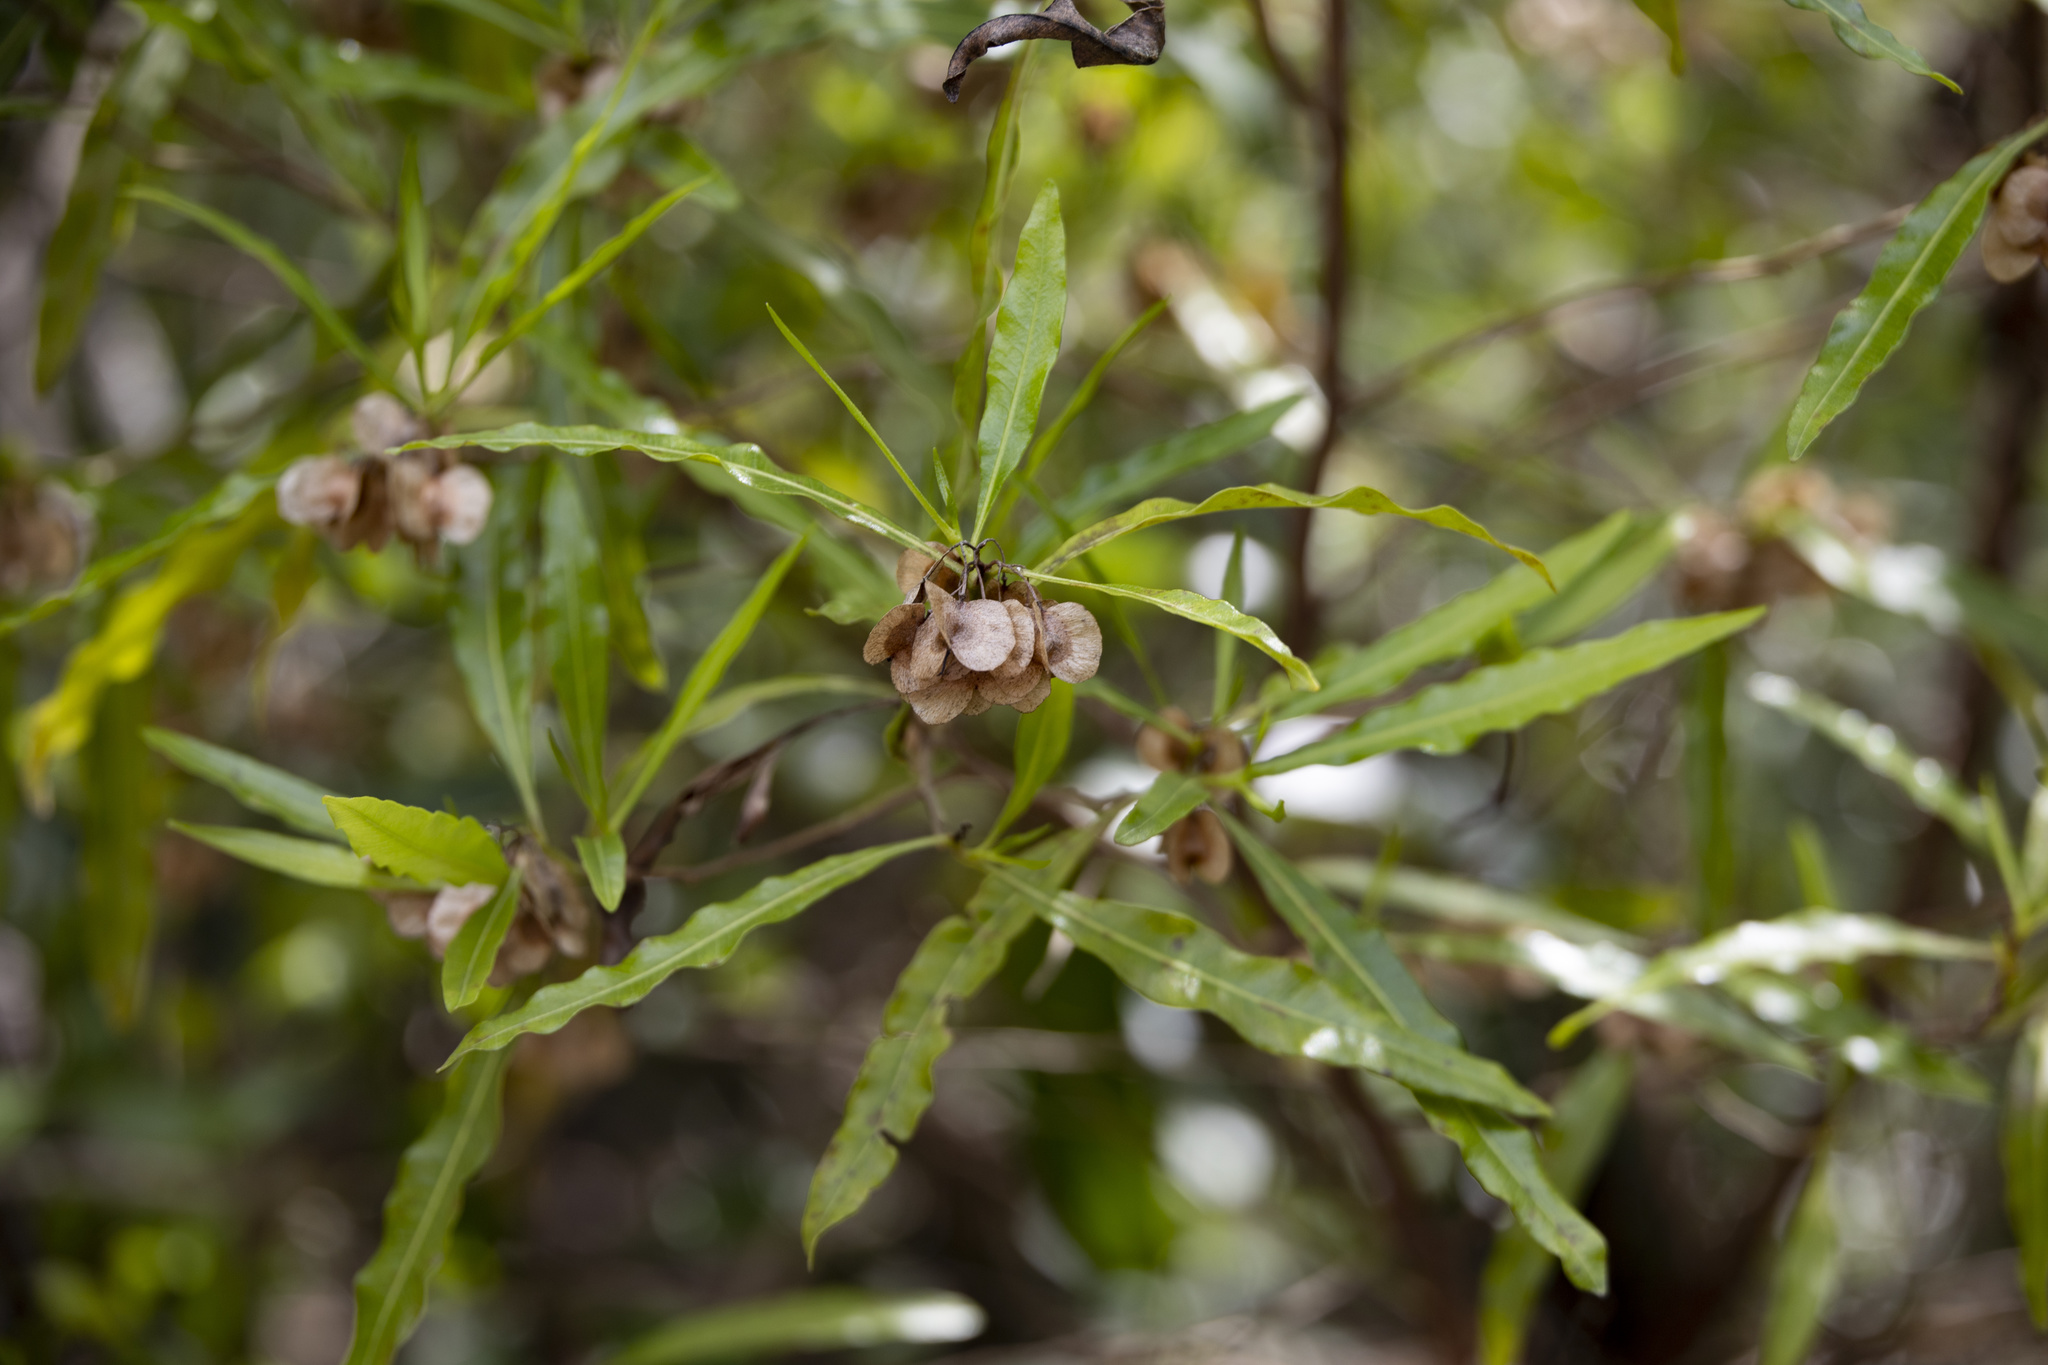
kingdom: Plantae
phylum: Tracheophyta
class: Magnoliopsida
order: Sapindales
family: Sapindaceae
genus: Dodonaea
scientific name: Dodonaea viscosa
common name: Hopbush
